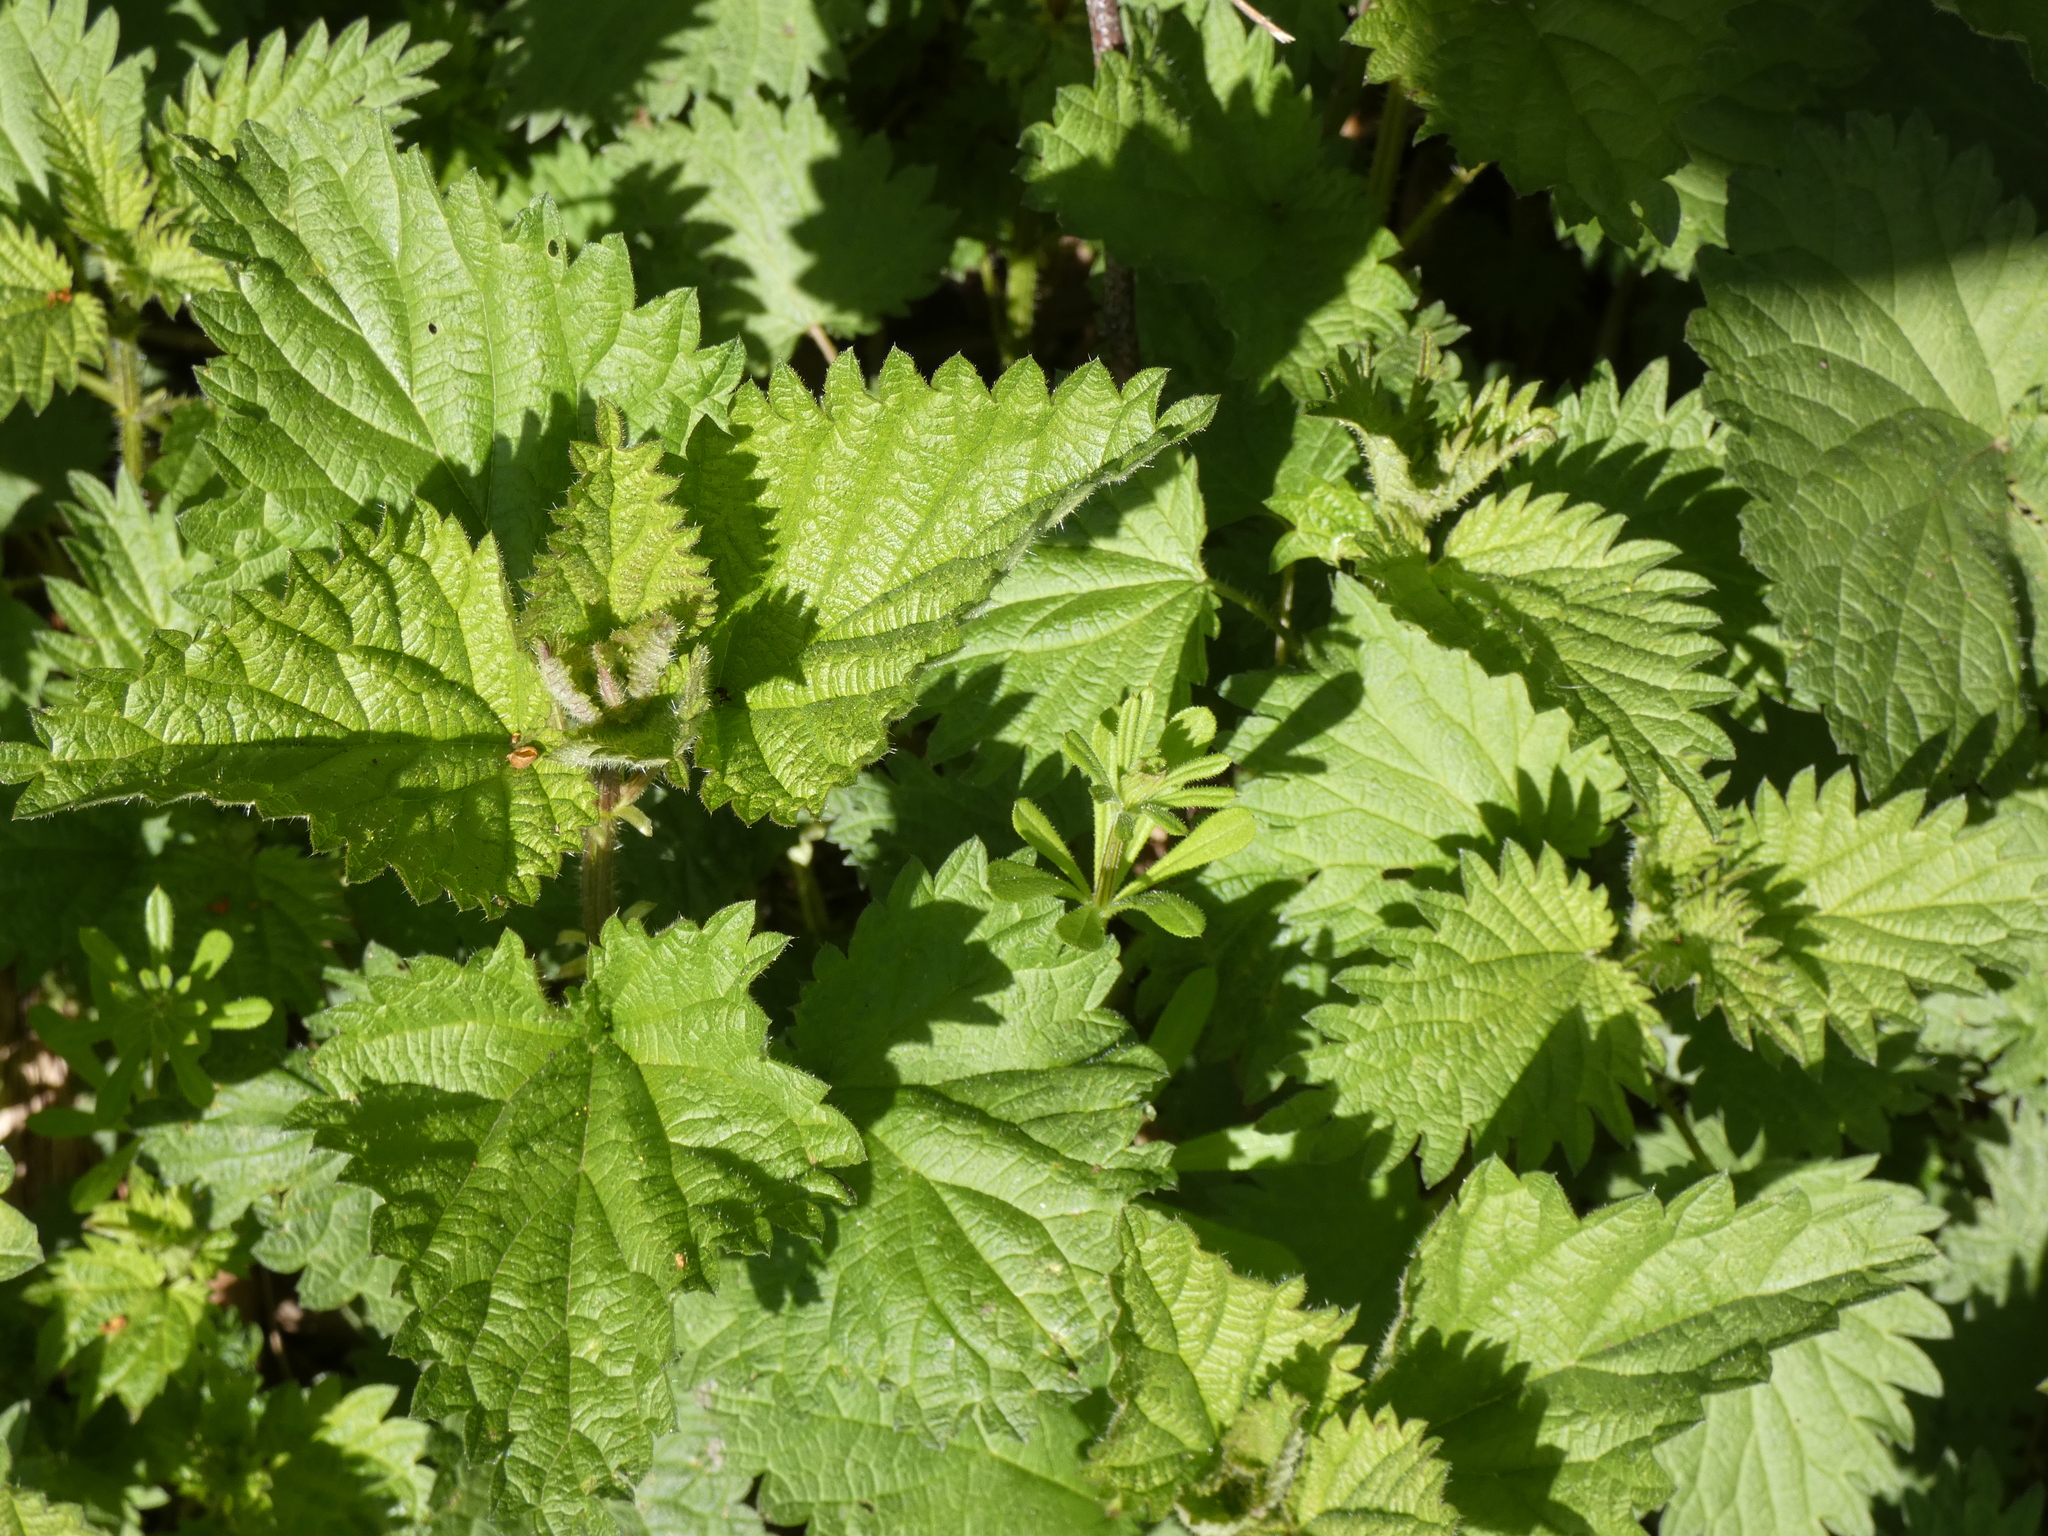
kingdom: Plantae
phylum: Tracheophyta
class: Magnoliopsida
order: Rosales
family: Urticaceae
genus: Urtica
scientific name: Urtica dioica
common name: Common nettle
